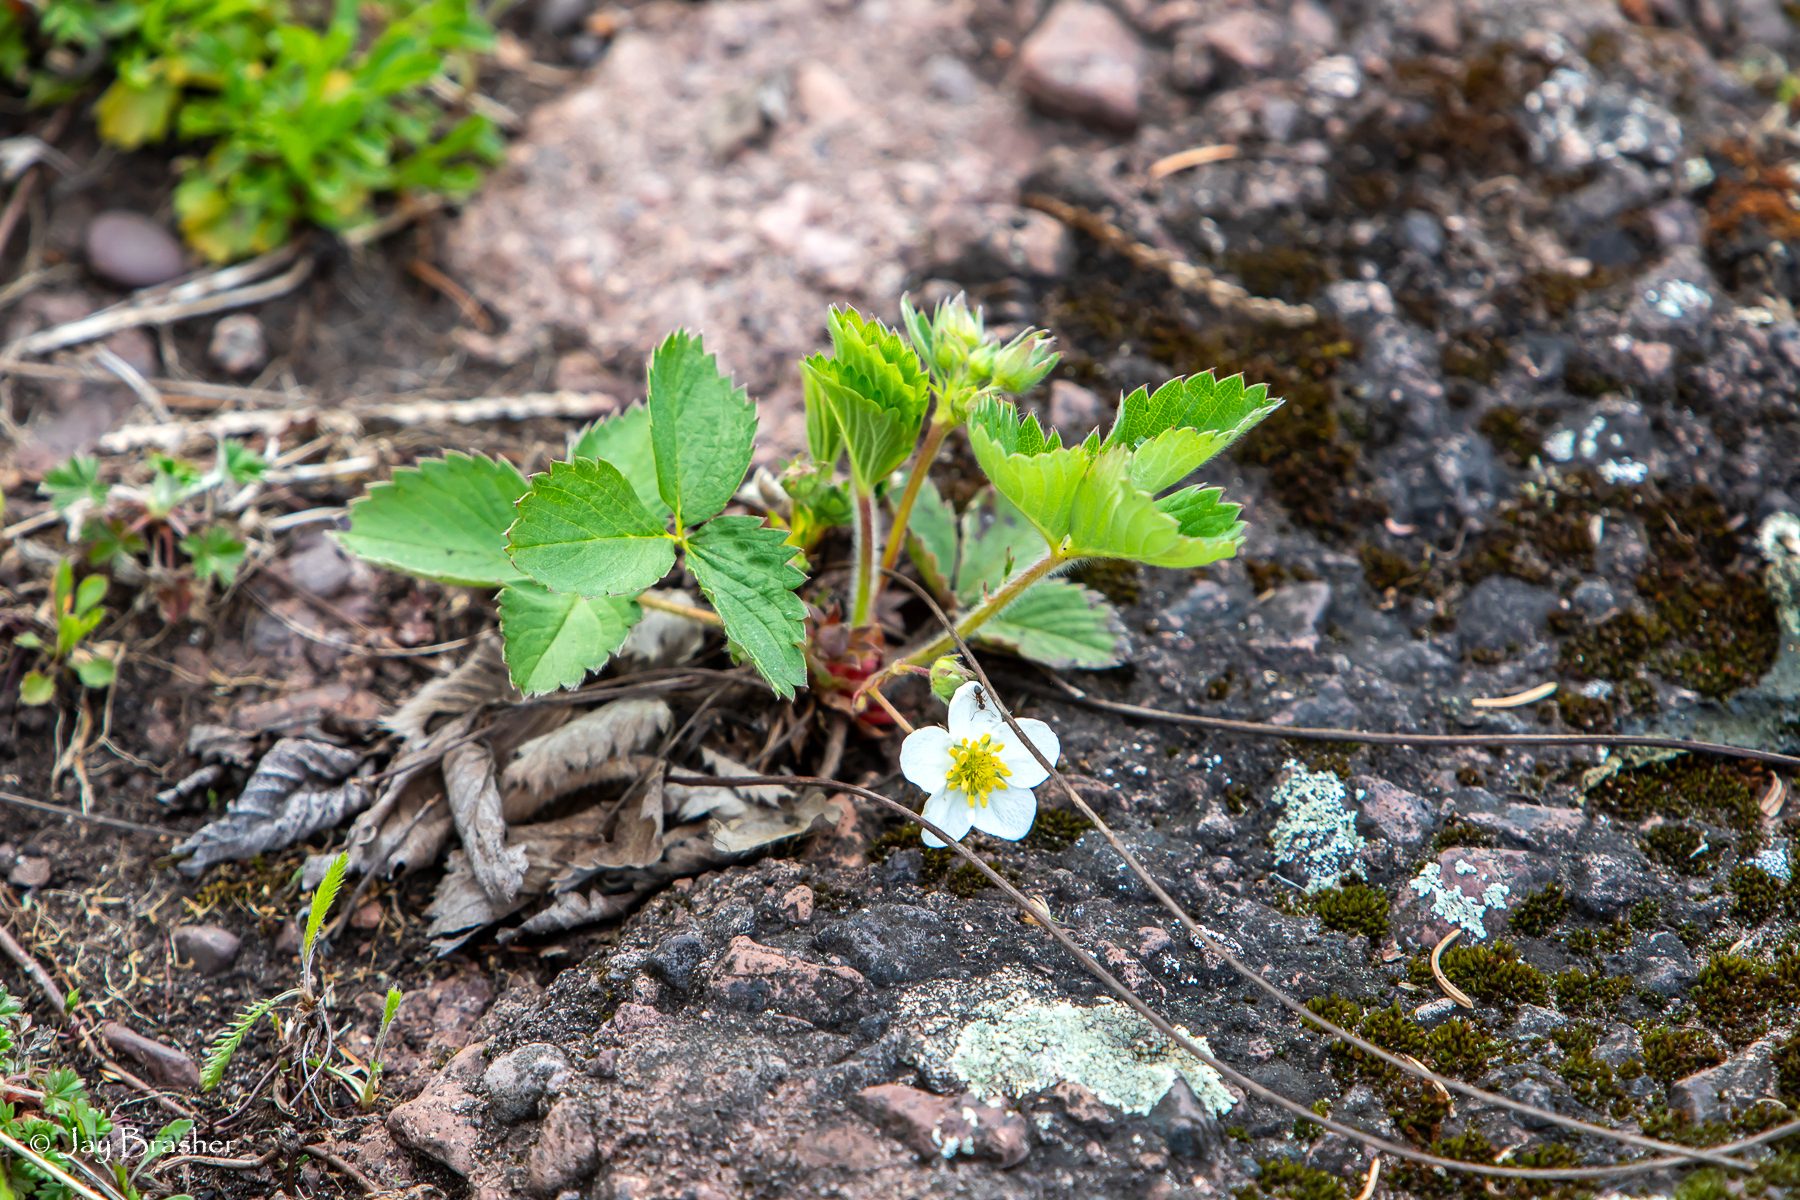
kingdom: Plantae
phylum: Tracheophyta
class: Magnoliopsida
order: Rosales
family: Rosaceae
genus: Fragaria
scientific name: Fragaria virginiana
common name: Thickleaved wild strawberry
